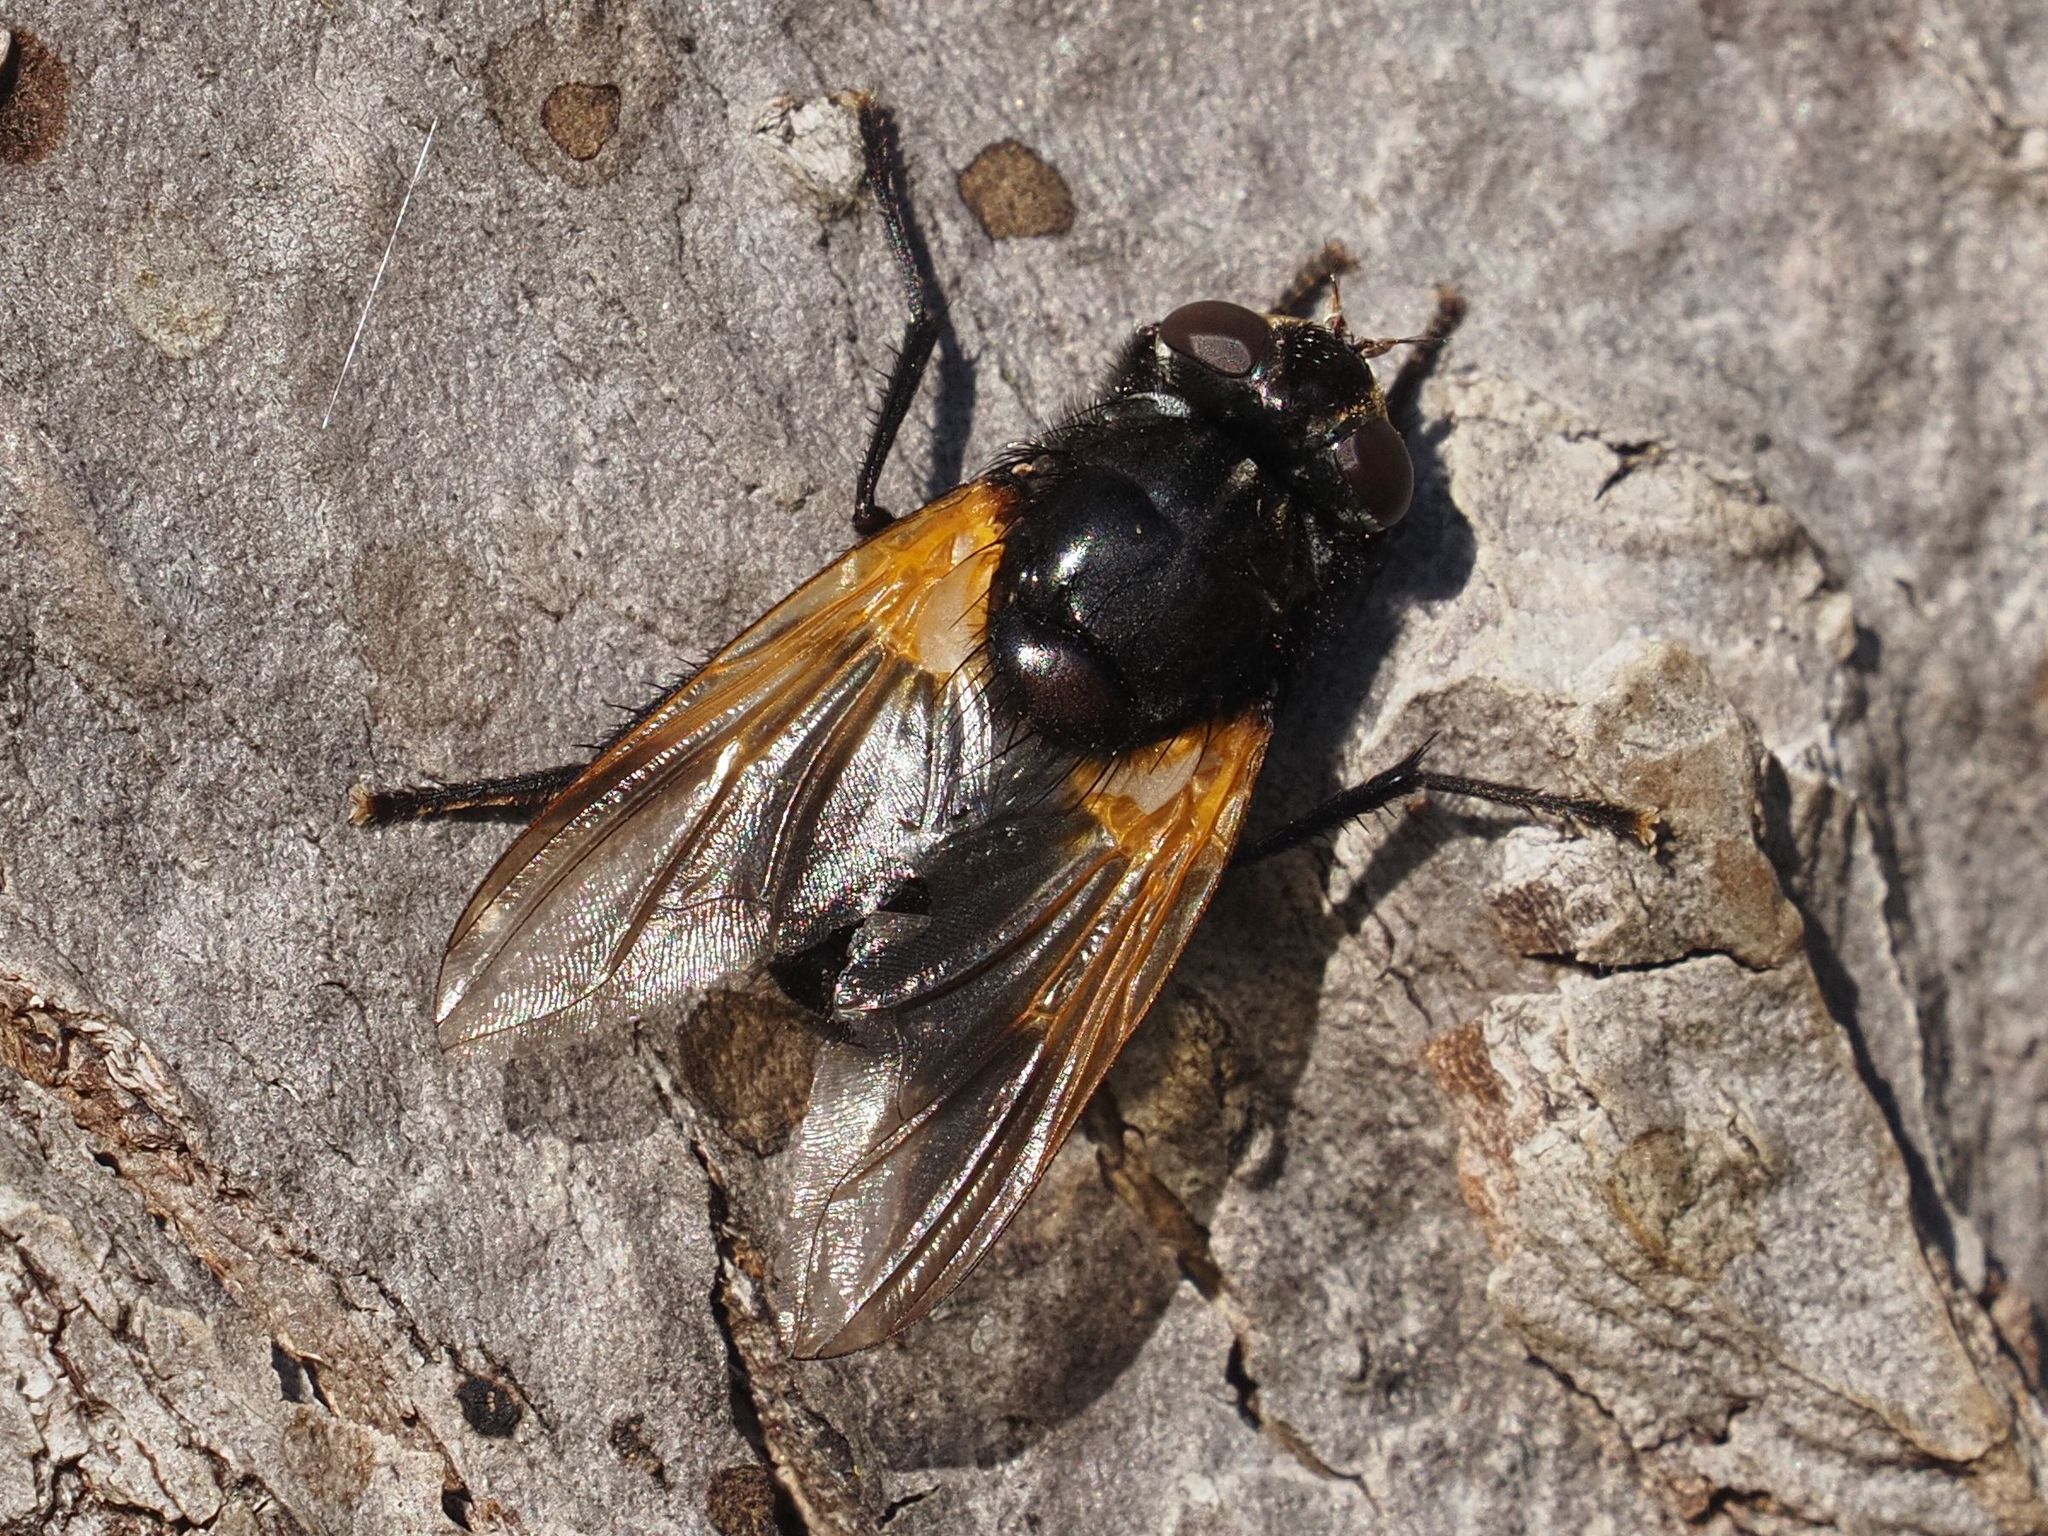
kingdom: Animalia
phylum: Arthropoda
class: Insecta
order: Diptera
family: Muscidae
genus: Mesembrina
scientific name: Mesembrina meridiana
